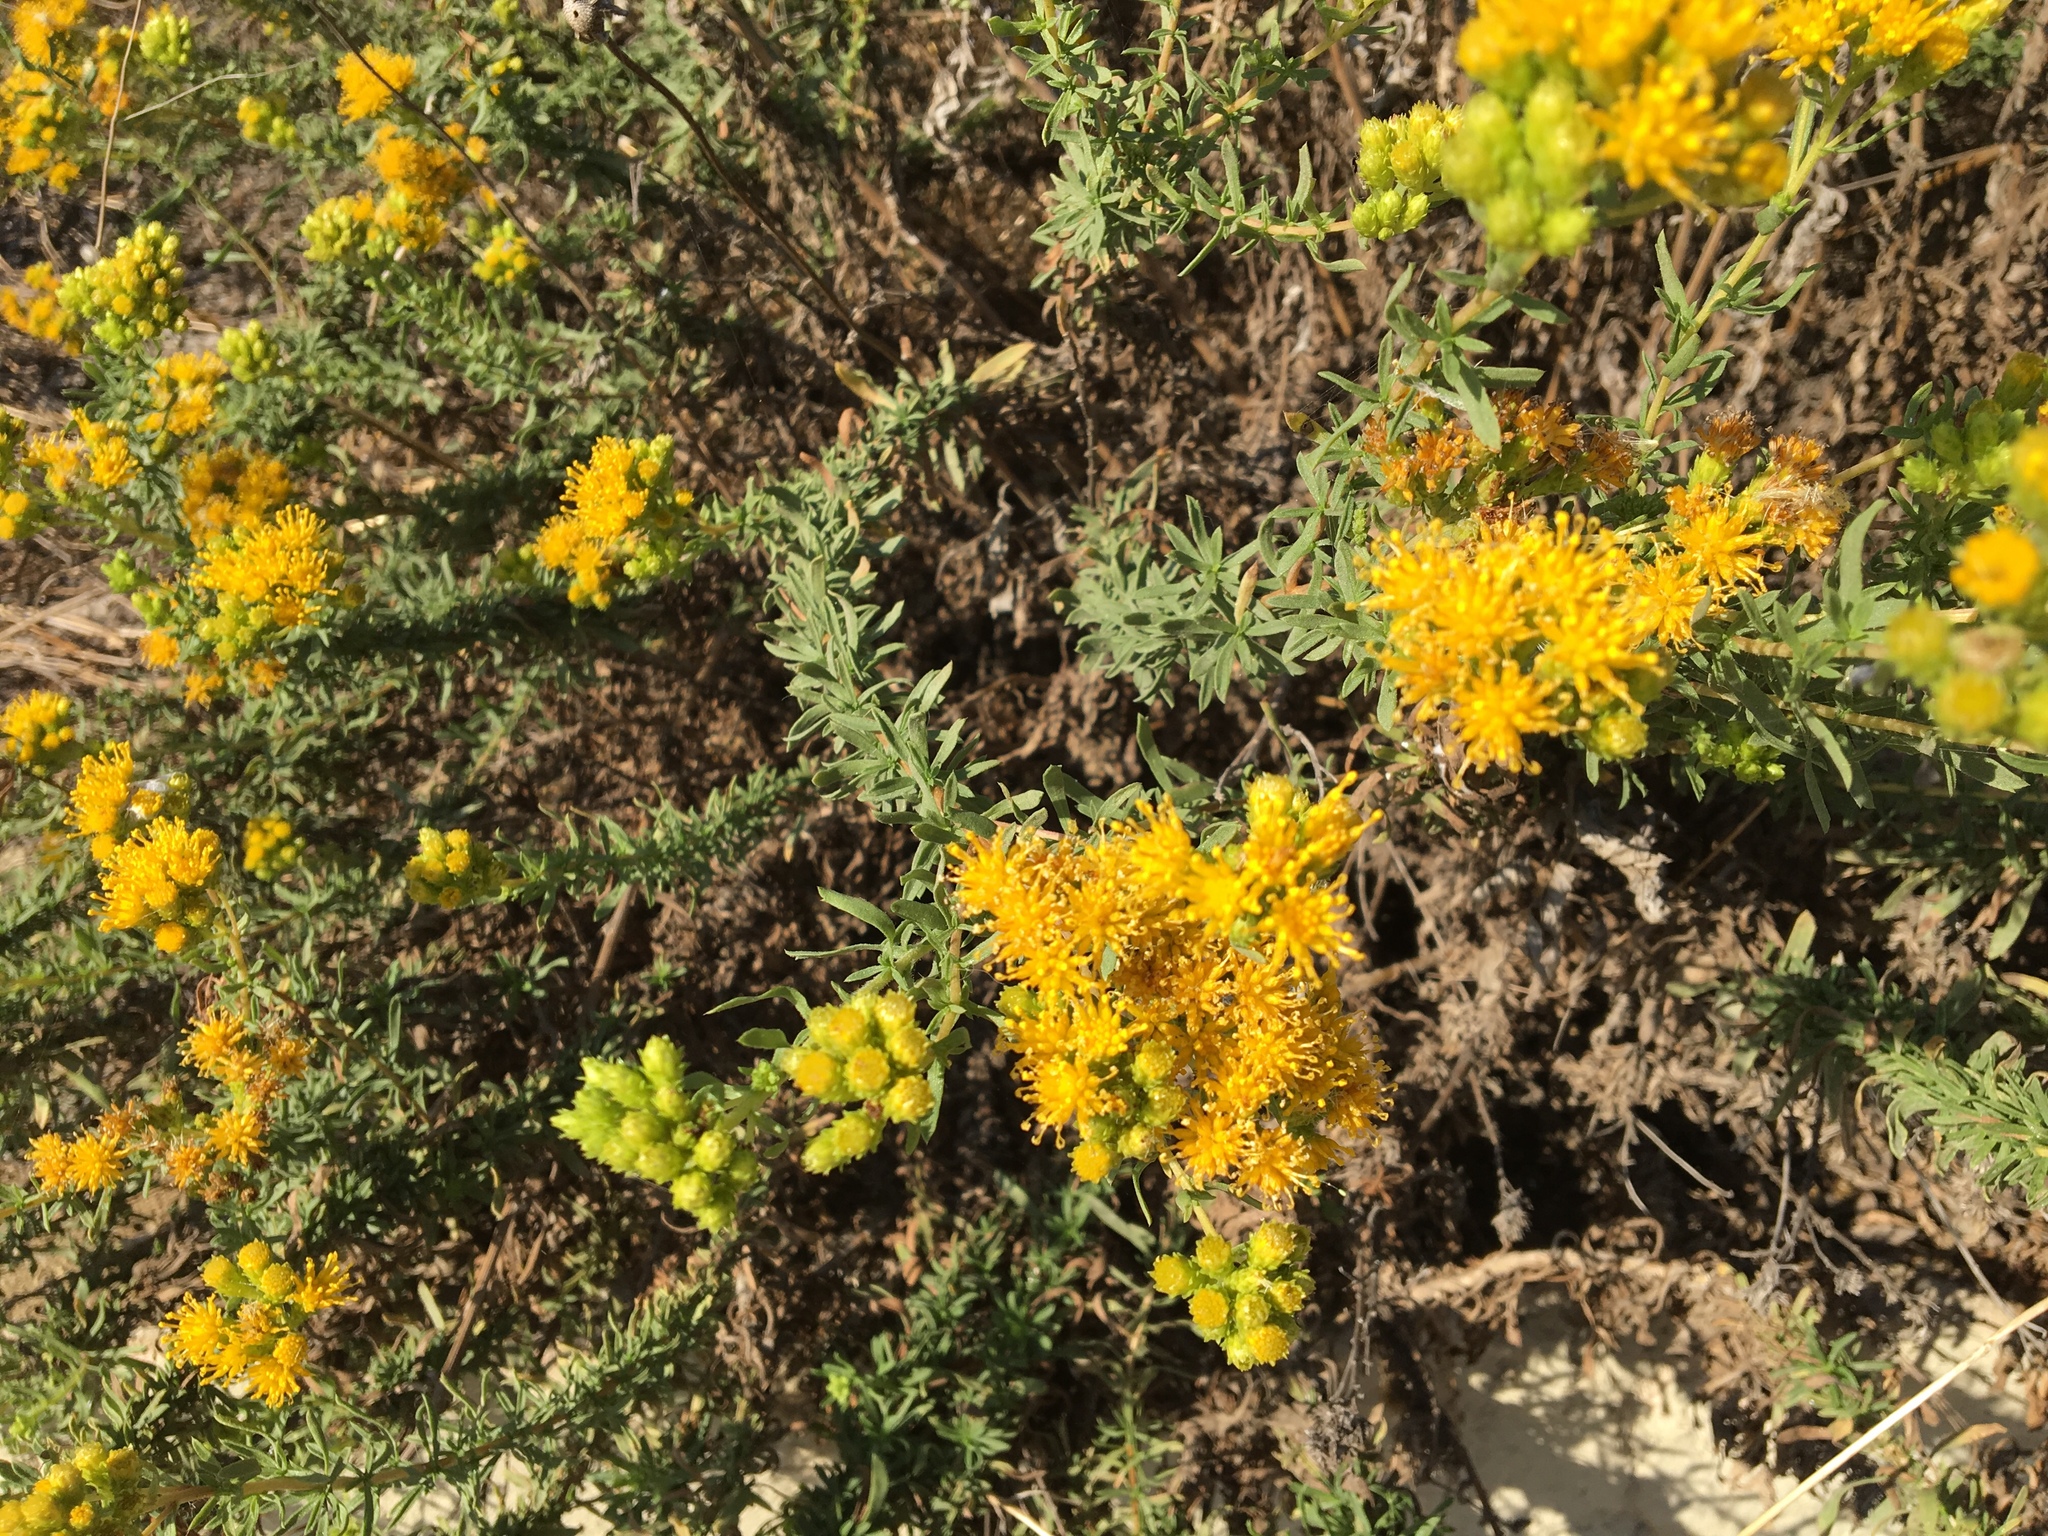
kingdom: Plantae
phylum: Tracheophyta
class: Magnoliopsida
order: Asterales
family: Asteraceae
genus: Isocoma
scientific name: Isocoma menziesii
